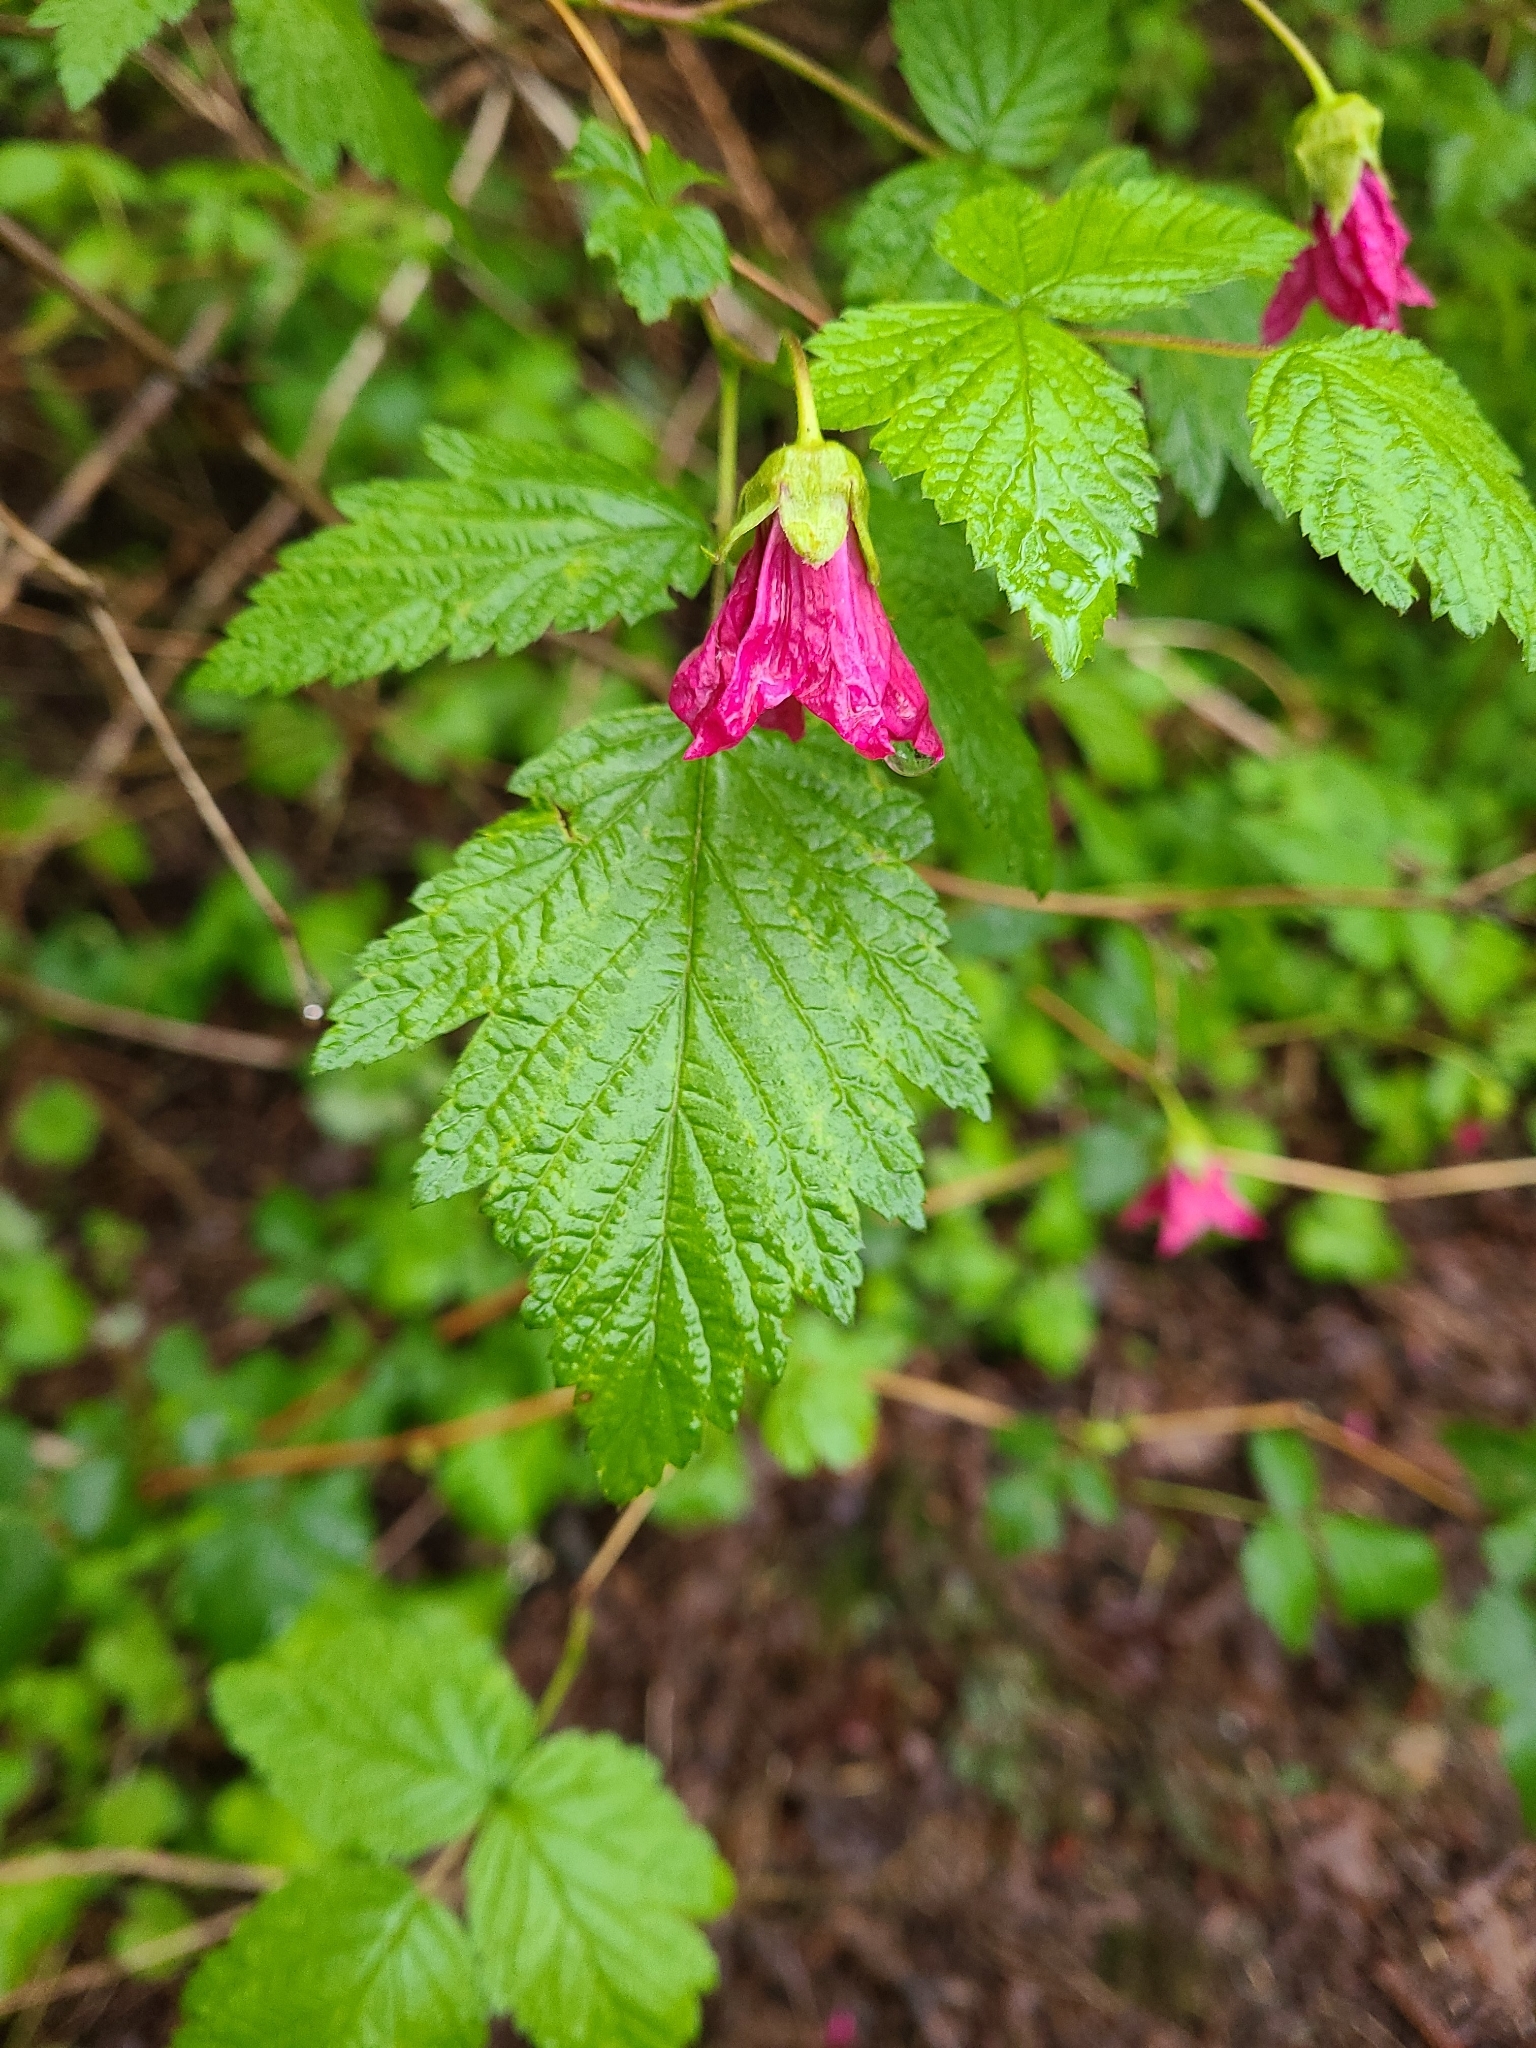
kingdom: Plantae
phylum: Tracheophyta
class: Magnoliopsida
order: Rosales
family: Rosaceae
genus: Rubus
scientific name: Rubus spectabilis
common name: Salmonberry
